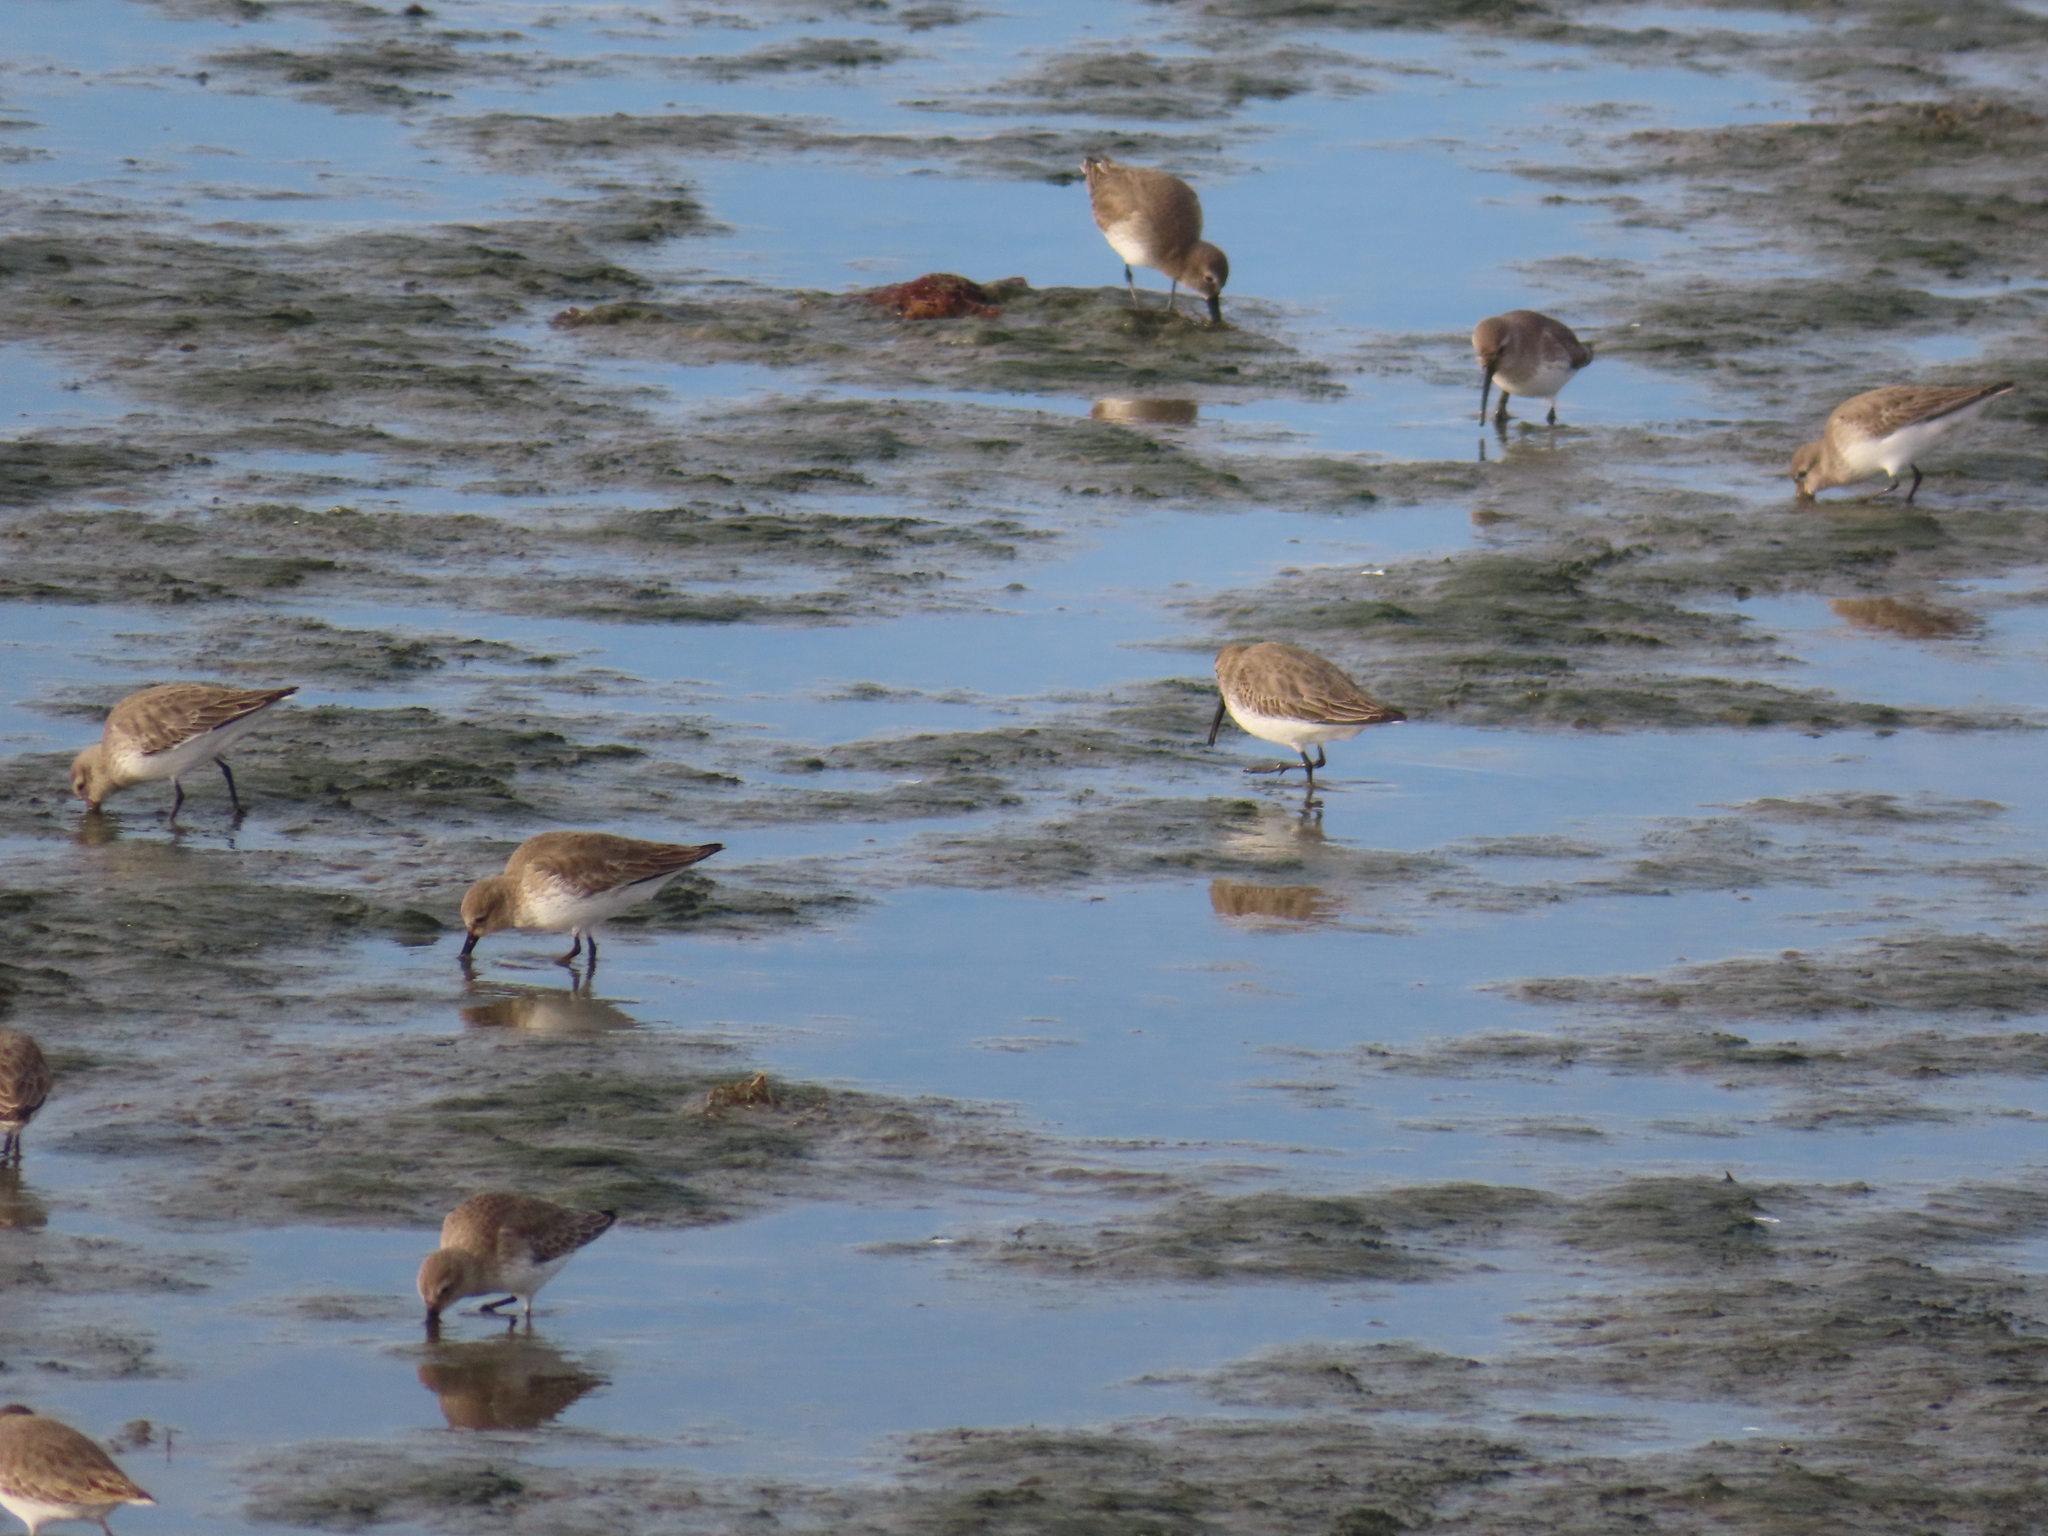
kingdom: Animalia
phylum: Chordata
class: Aves
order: Charadriiformes
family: Scolopacidae
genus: Calidris
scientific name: Calidris alpina
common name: Dunlin
